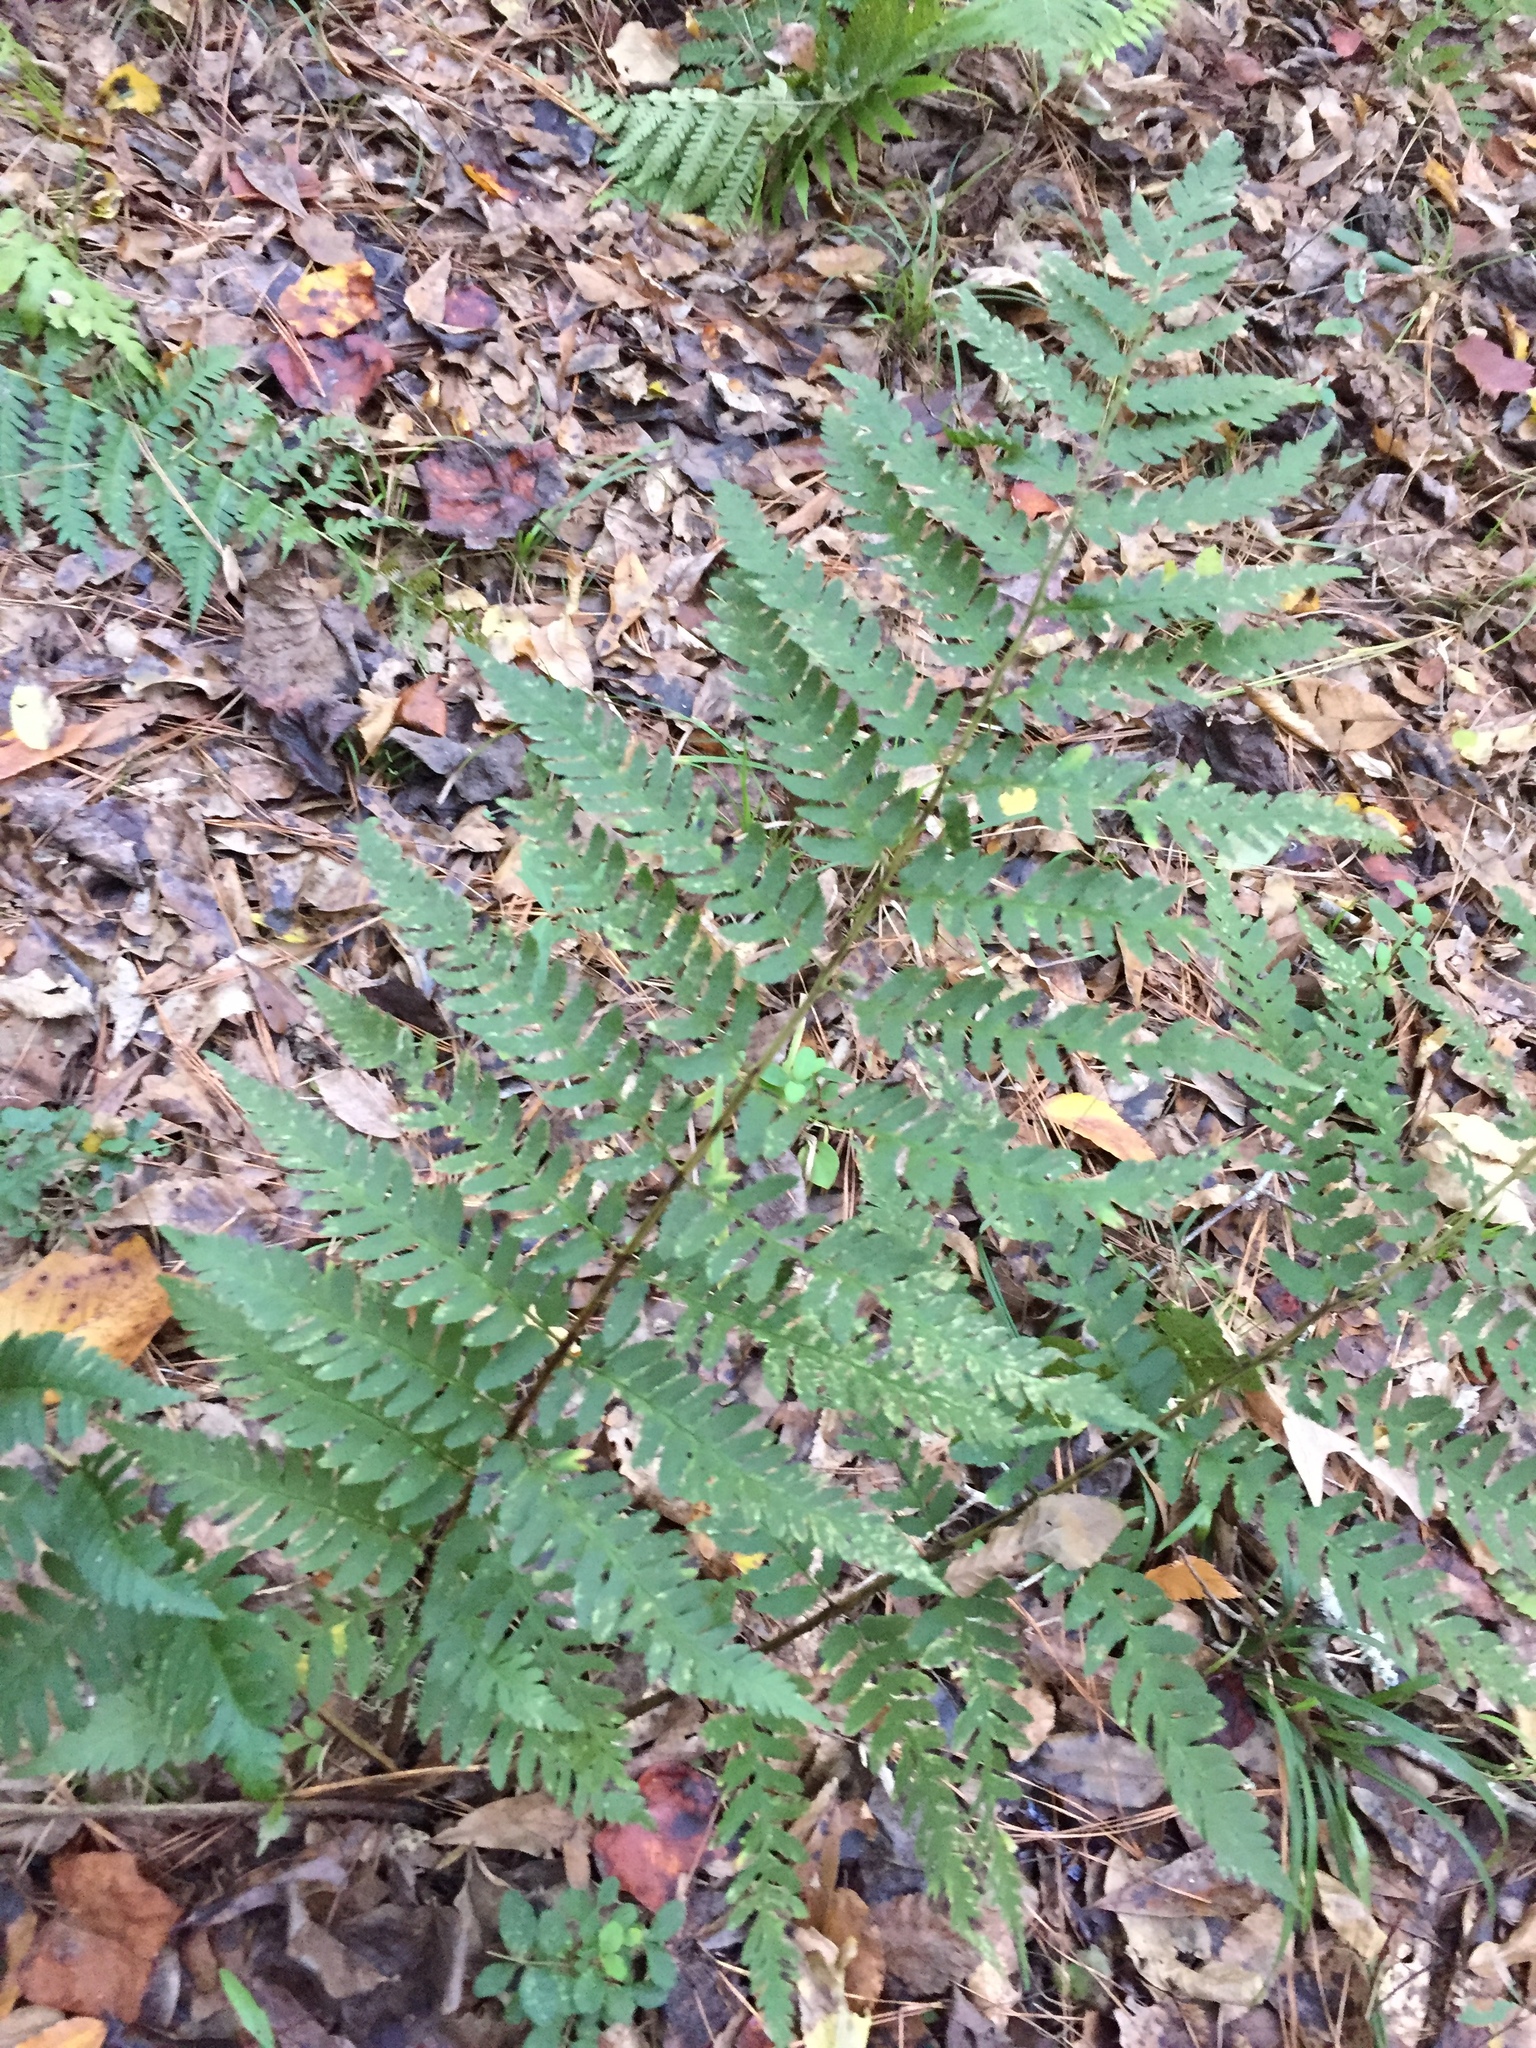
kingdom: Plantae
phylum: Tracheophyta
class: Polypodiopsida
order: Polypodiales
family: Dryopteridaceae
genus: Dryopteris
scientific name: Dryopteris celsa
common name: Log fern
